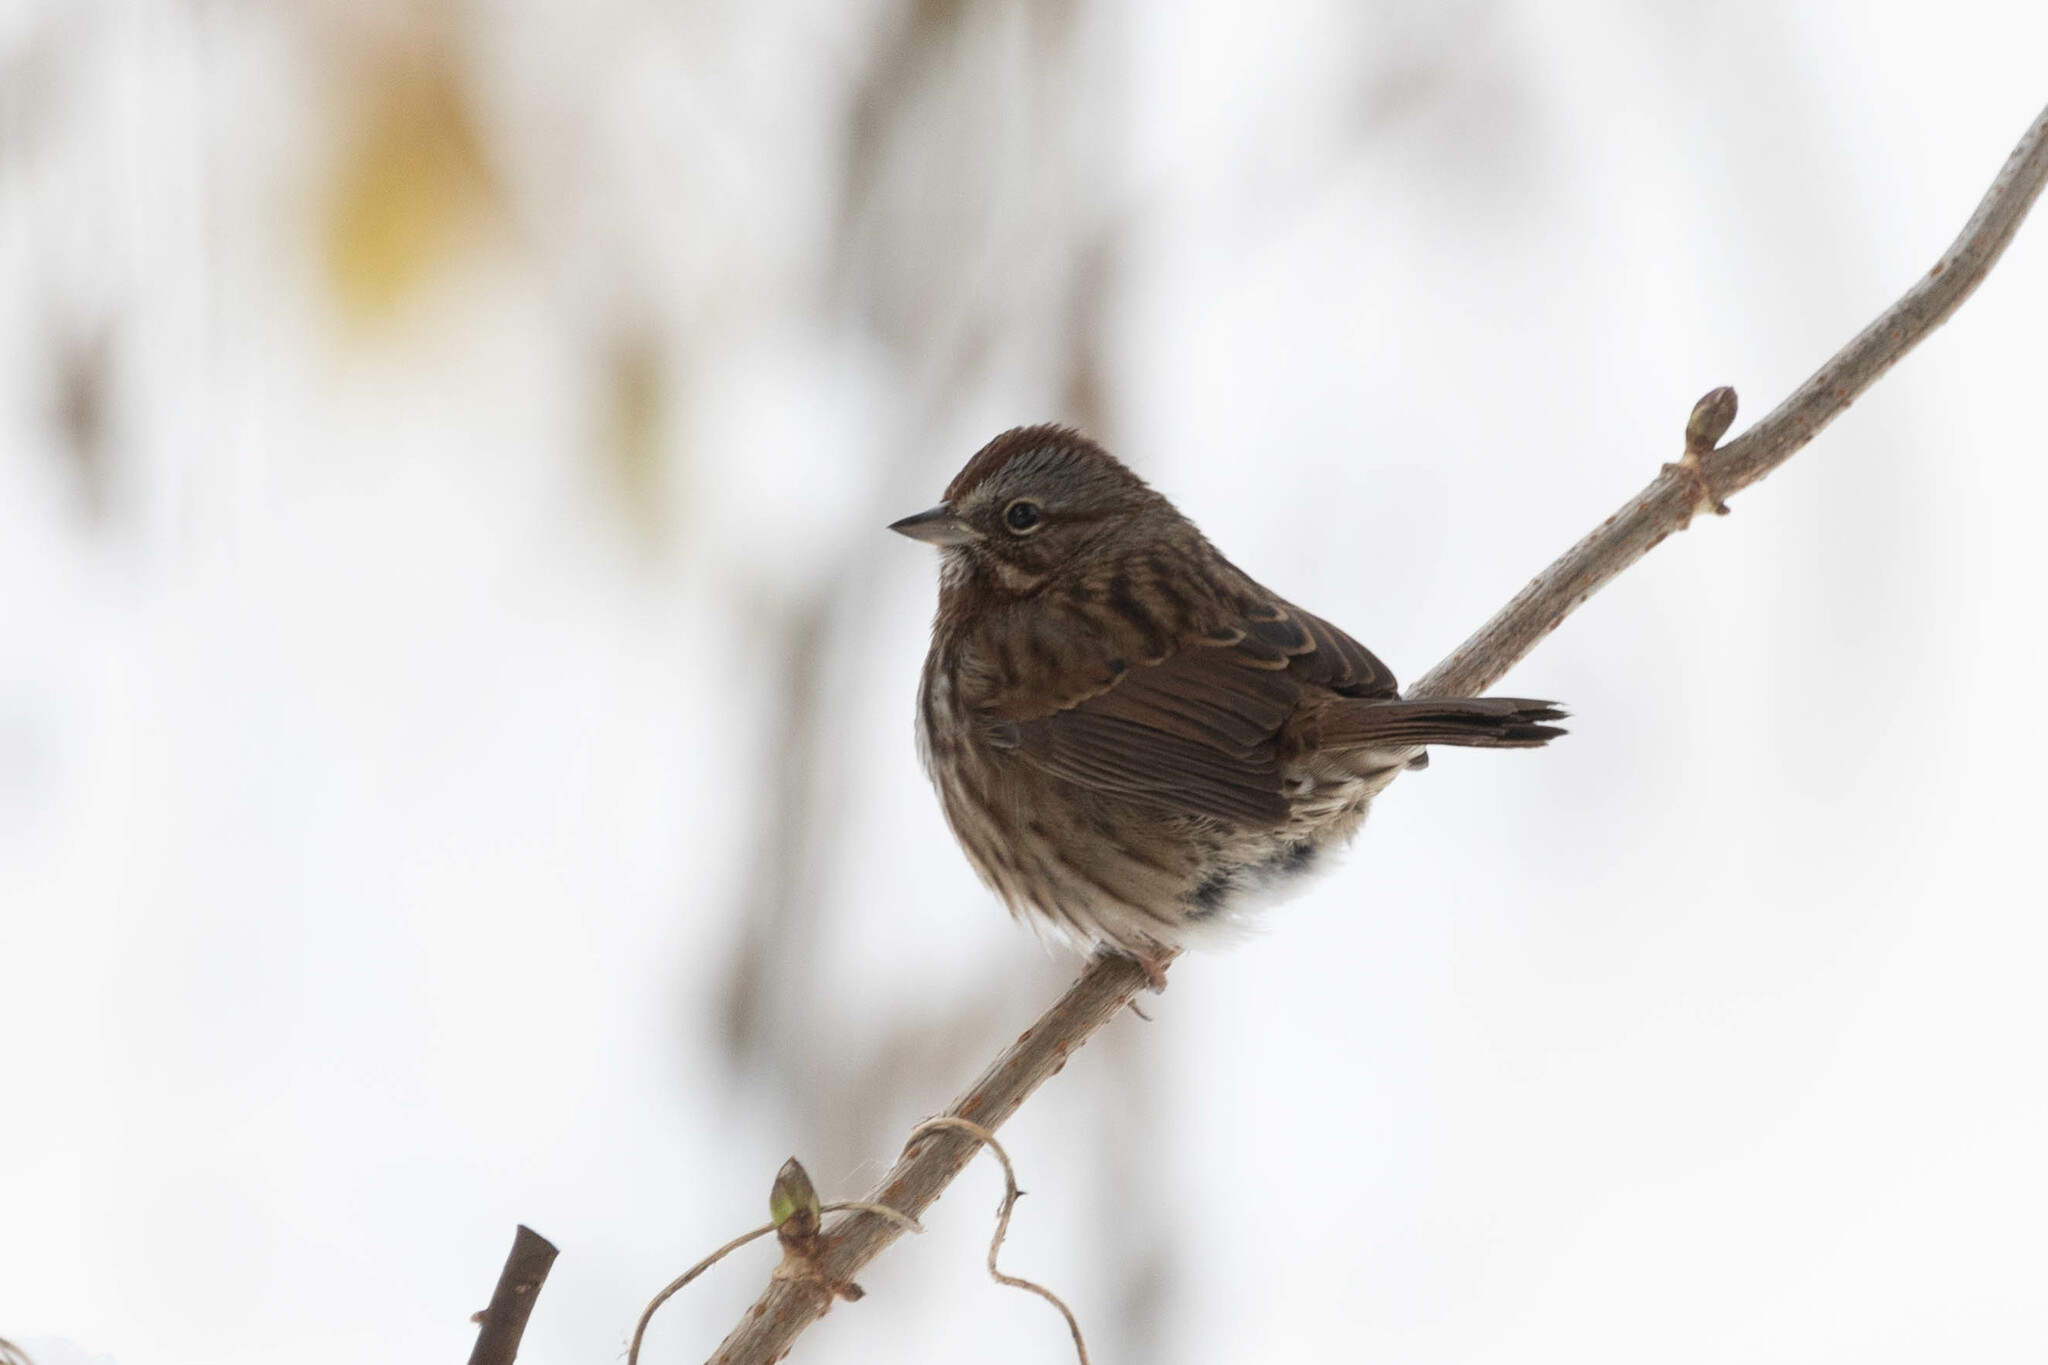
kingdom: Animalia
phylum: Chordata
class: Aves
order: Passeriformes
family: Passerellidae
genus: Melospiza
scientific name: Melospiza melodia
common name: Song sparrow
